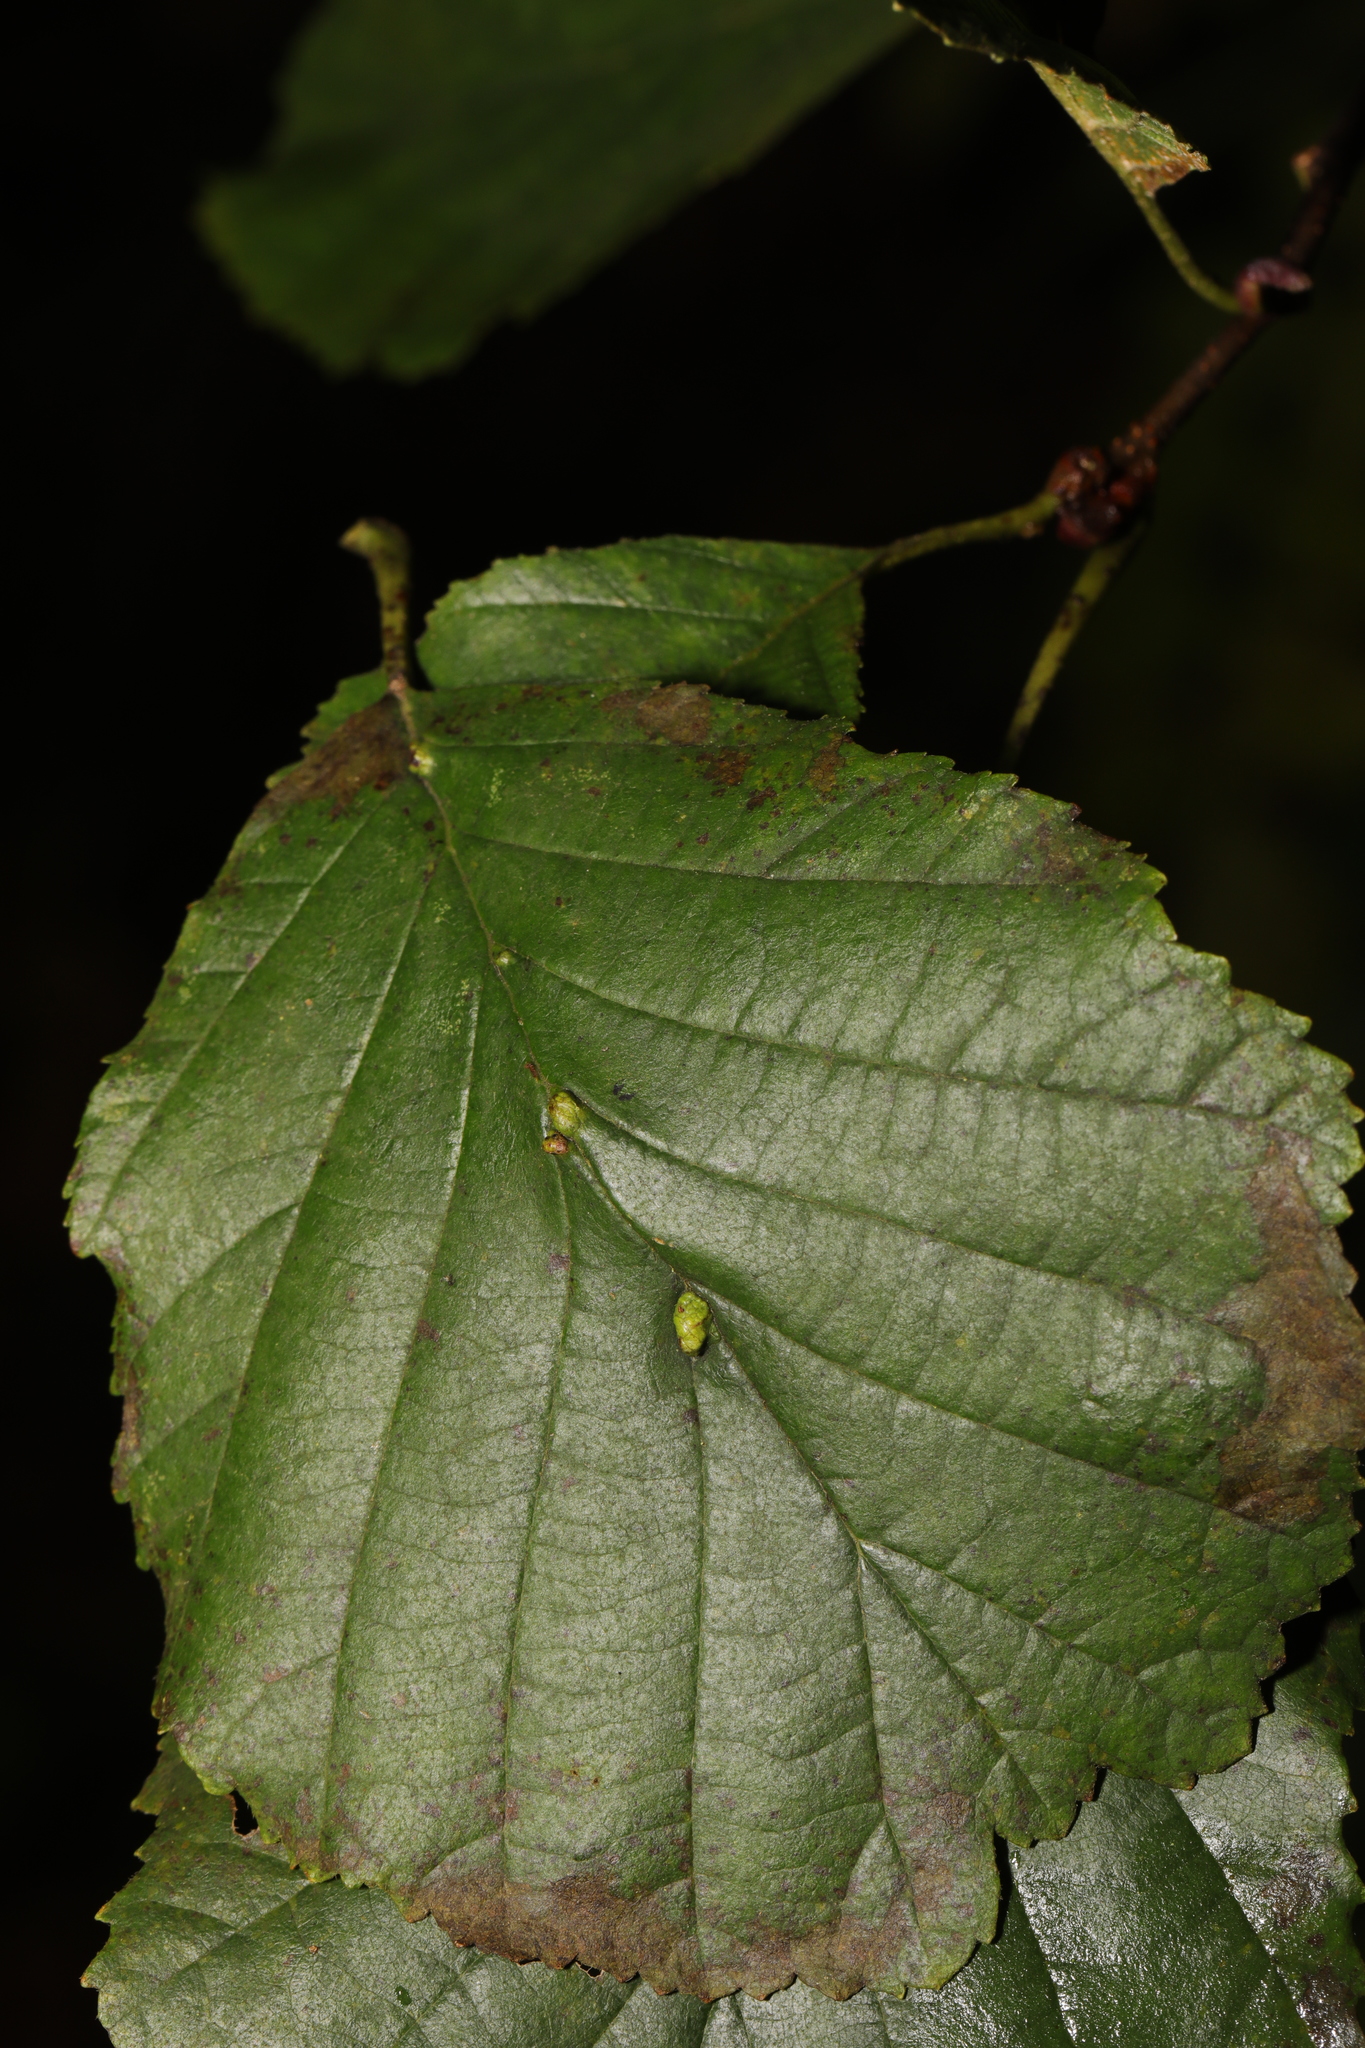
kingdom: Animalia
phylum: Arthropoda
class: Arachnida
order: Trombidiformes
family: Eriophyidae
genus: Eriophyes
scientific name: Eriophyes inangulis
